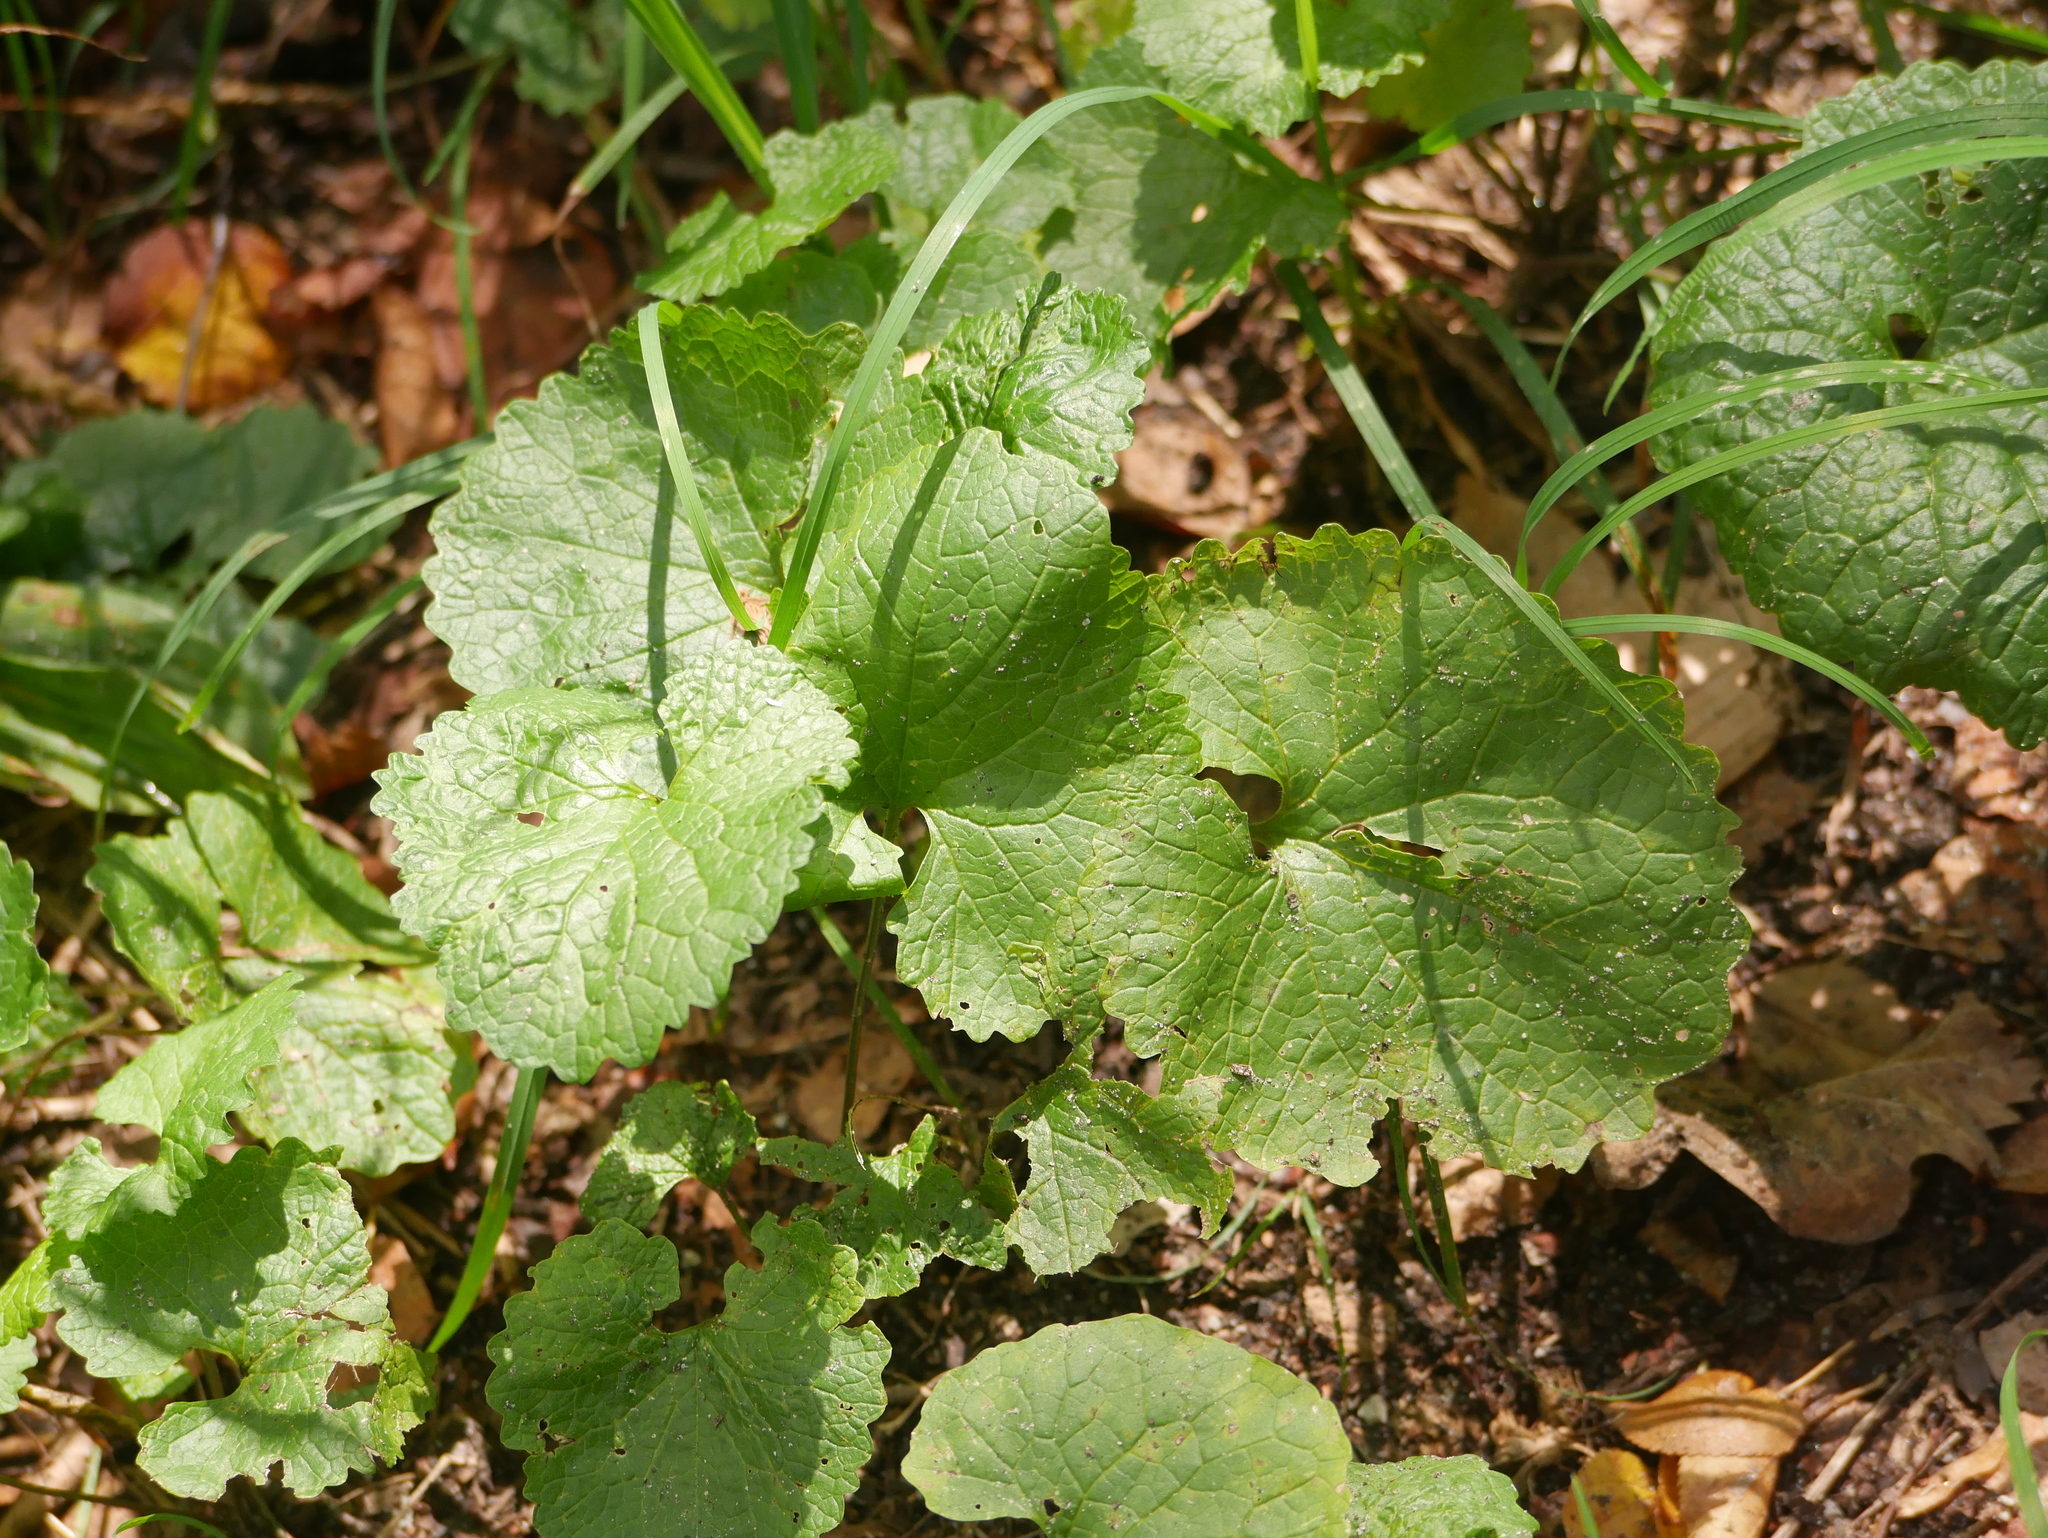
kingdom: Plantae
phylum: Tracheophyta
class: Magnoliopsida
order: Brassicales
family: Brassicaceae
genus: Alliaria
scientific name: Alliaria petiolata
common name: Garlic mustard
